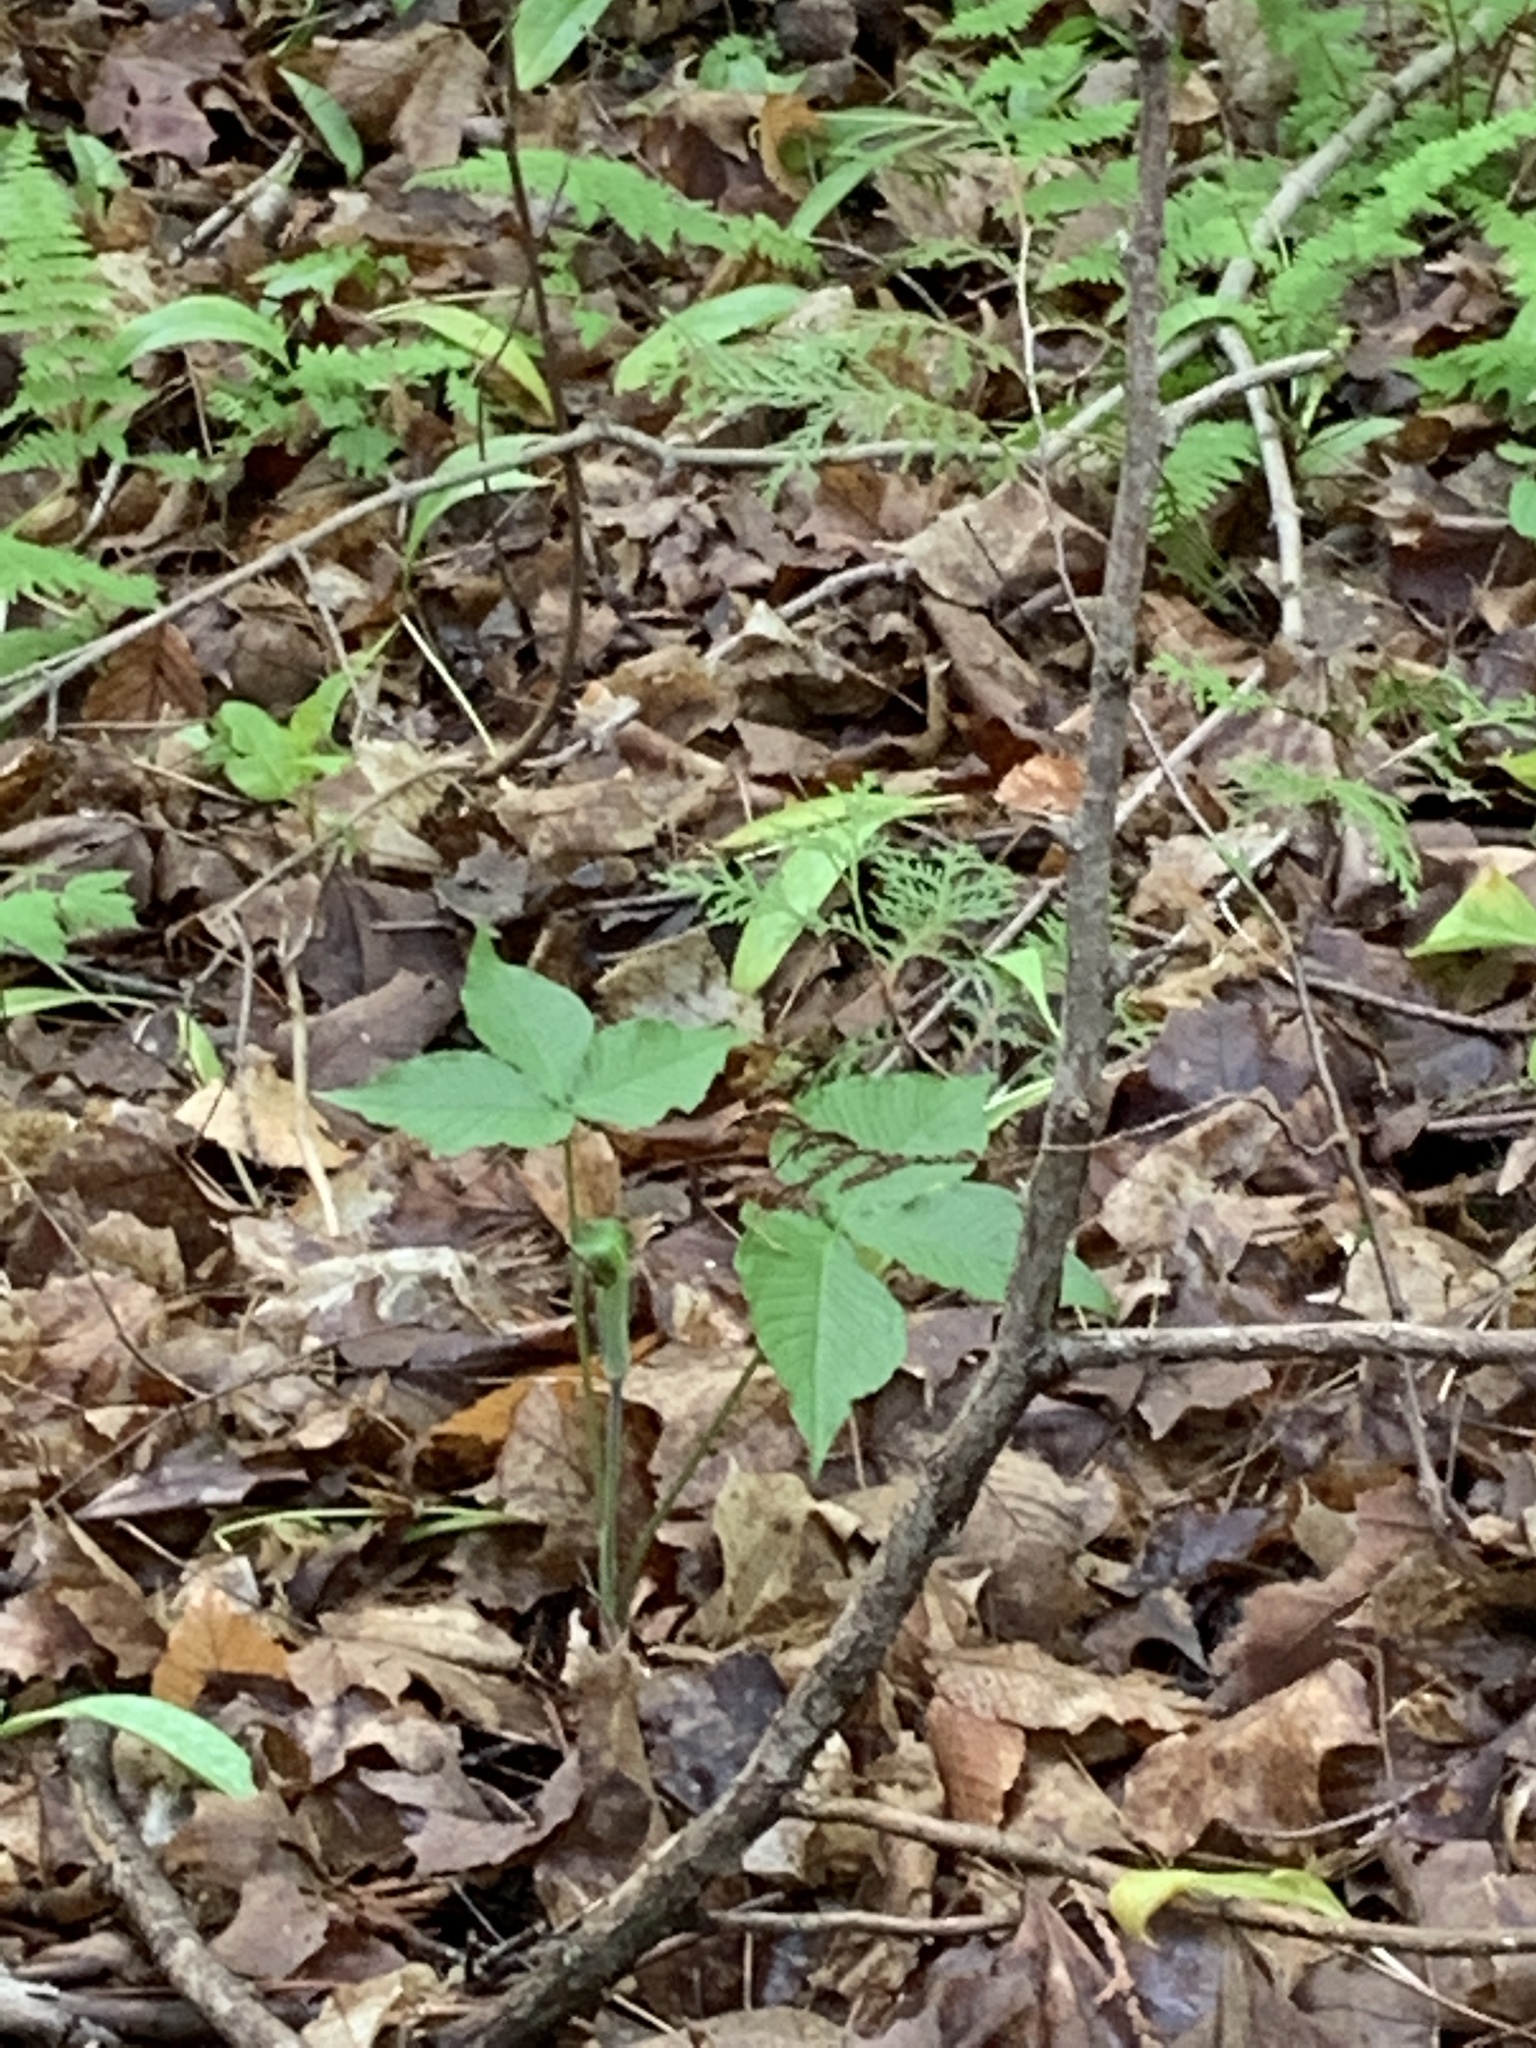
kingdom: Plantae
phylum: Tracheophyta
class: Liliopsida
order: Alismatales
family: Araceae
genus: Arisaema
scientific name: Arisaema triphyllum
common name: Jack-in-the-pulpit
